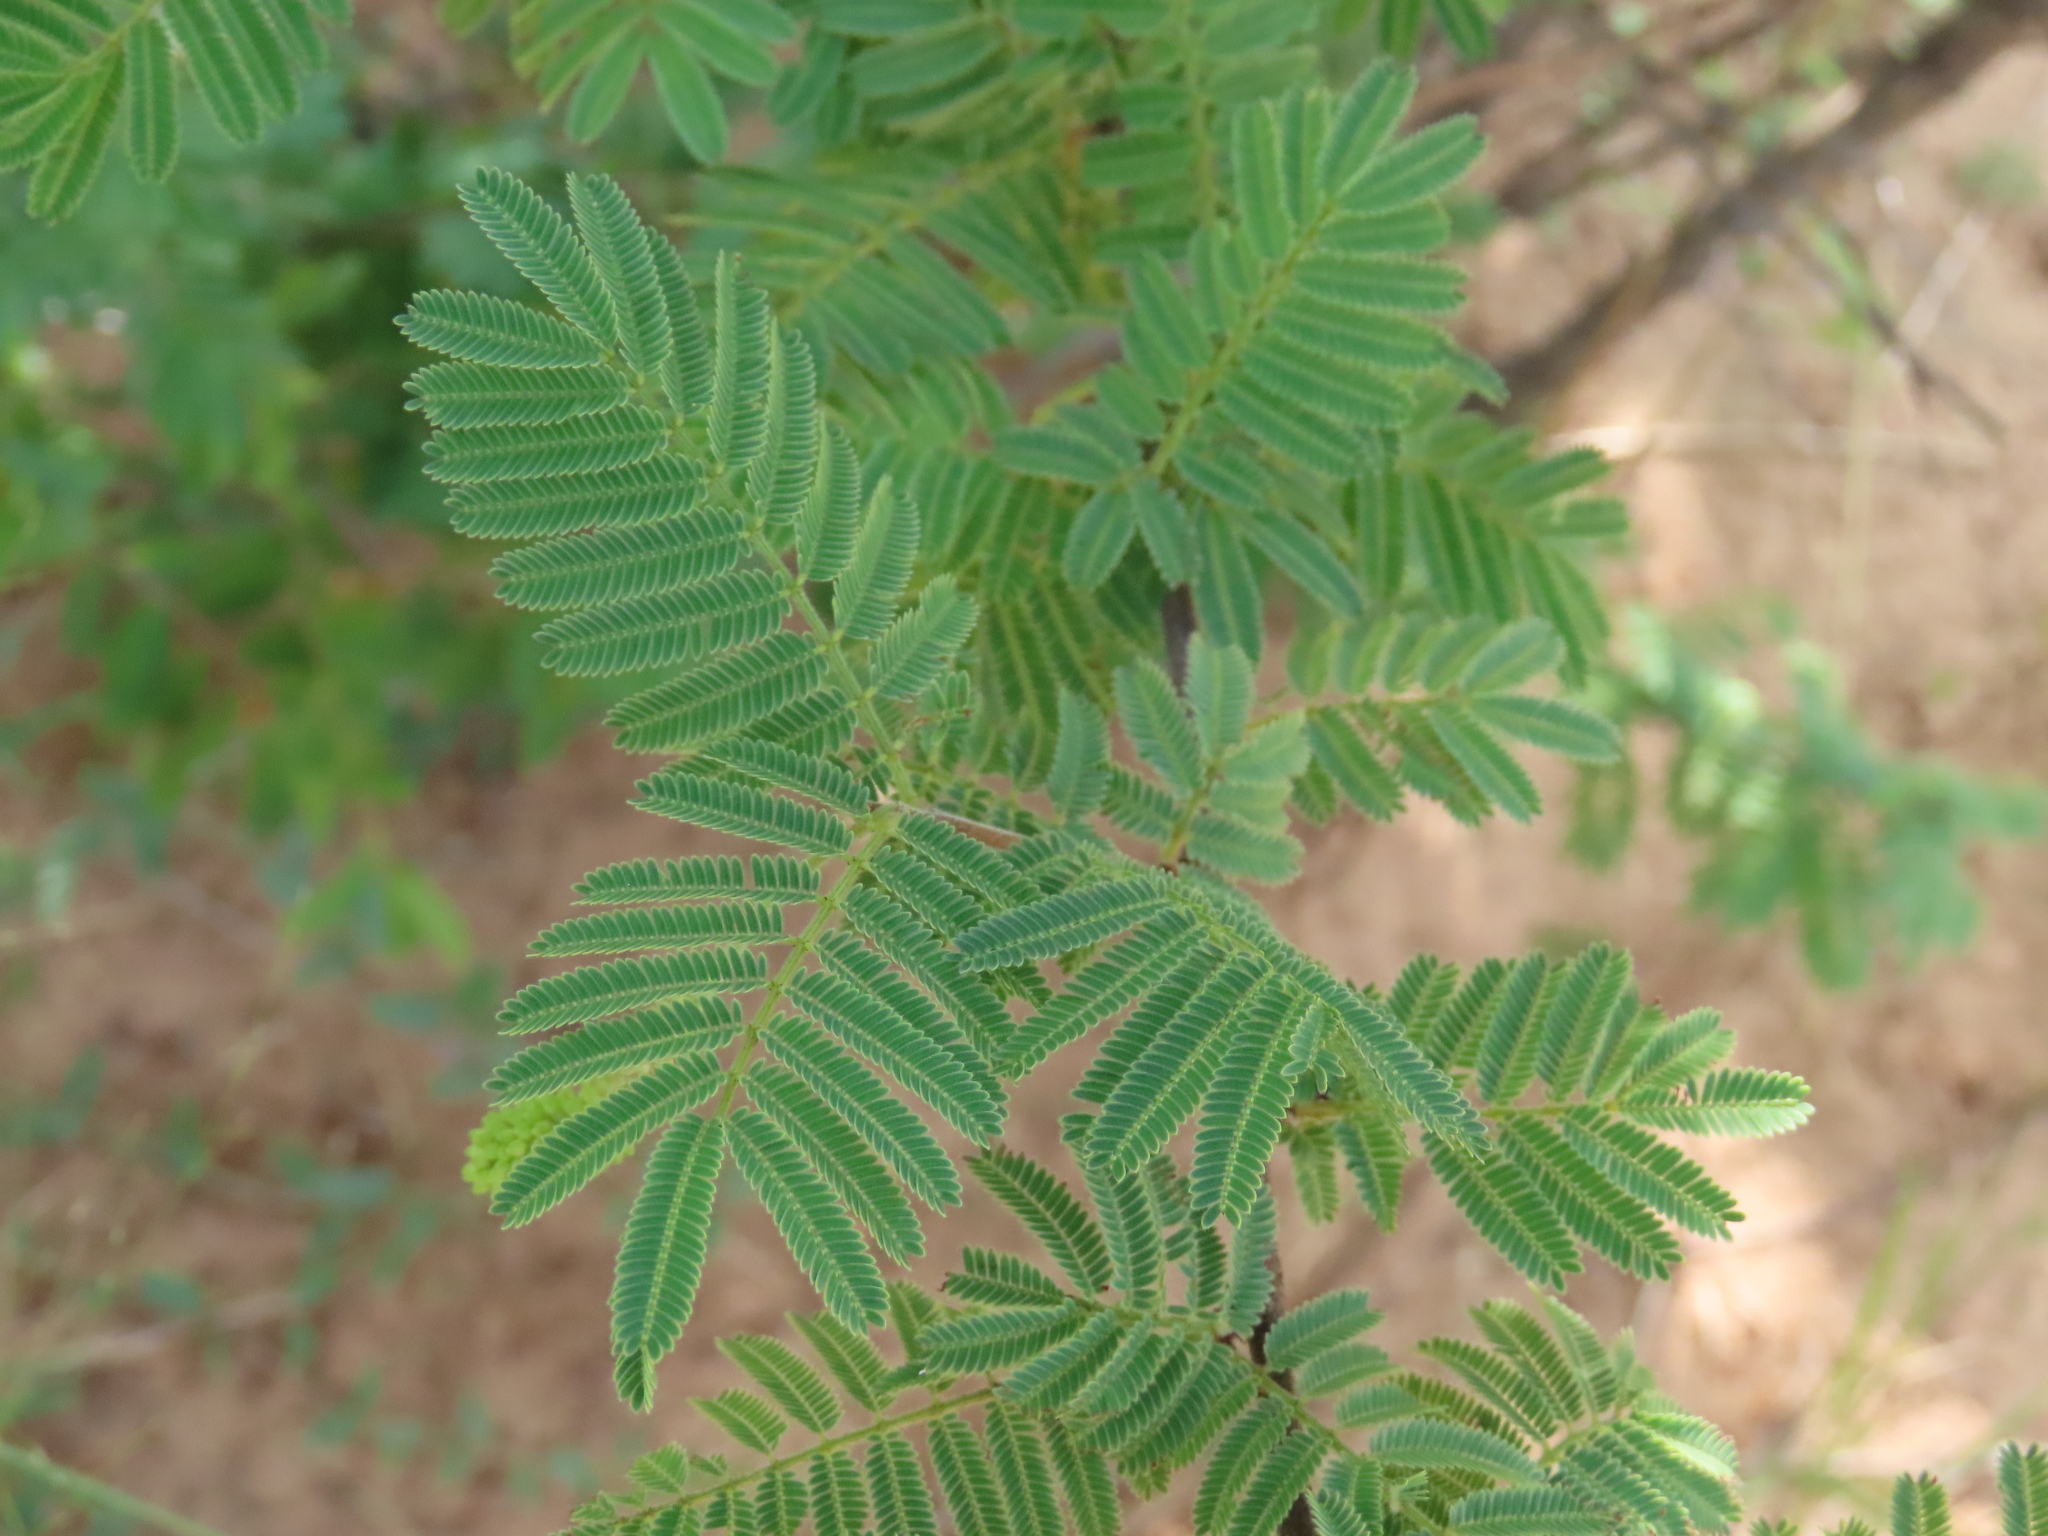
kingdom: Plantae
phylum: Tracheophyta
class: Magnoliopsida
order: Fabales
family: Fabaceae
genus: Dichrostachys
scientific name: Dichrostachys cinerea
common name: Sicklebush
